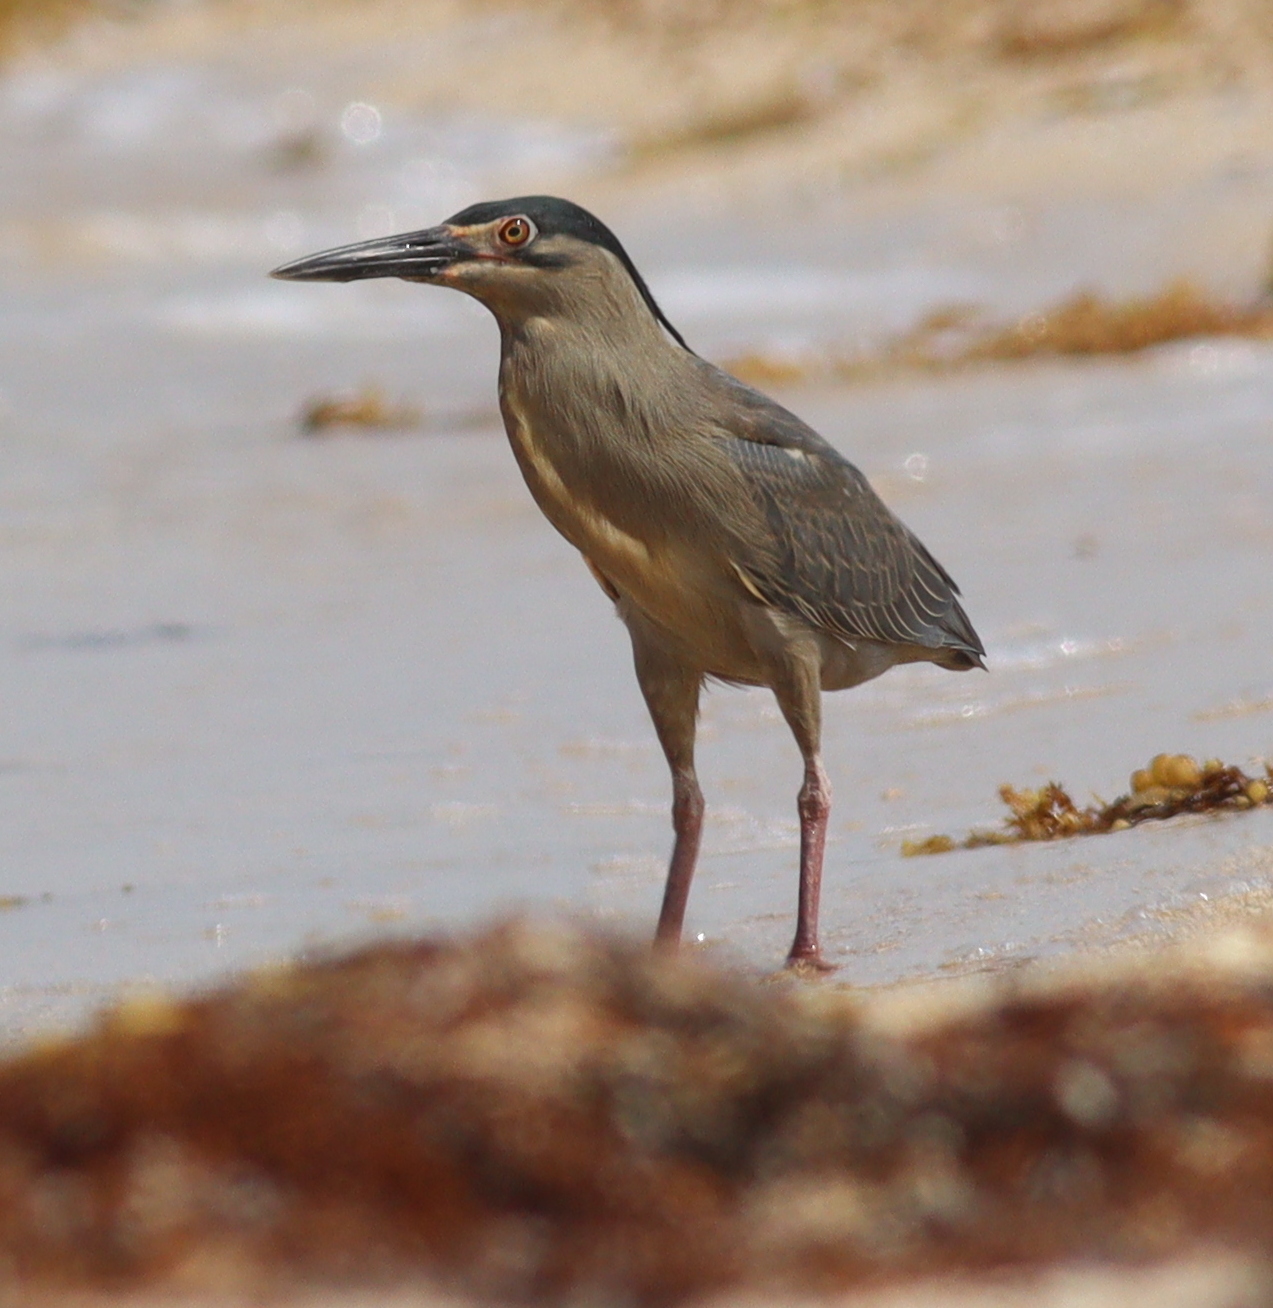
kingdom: Animalia
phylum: Chordata
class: Aves
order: Pelecaniformes
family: Ardeidae
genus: Butorides
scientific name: Butorides striata
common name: Striated heron
